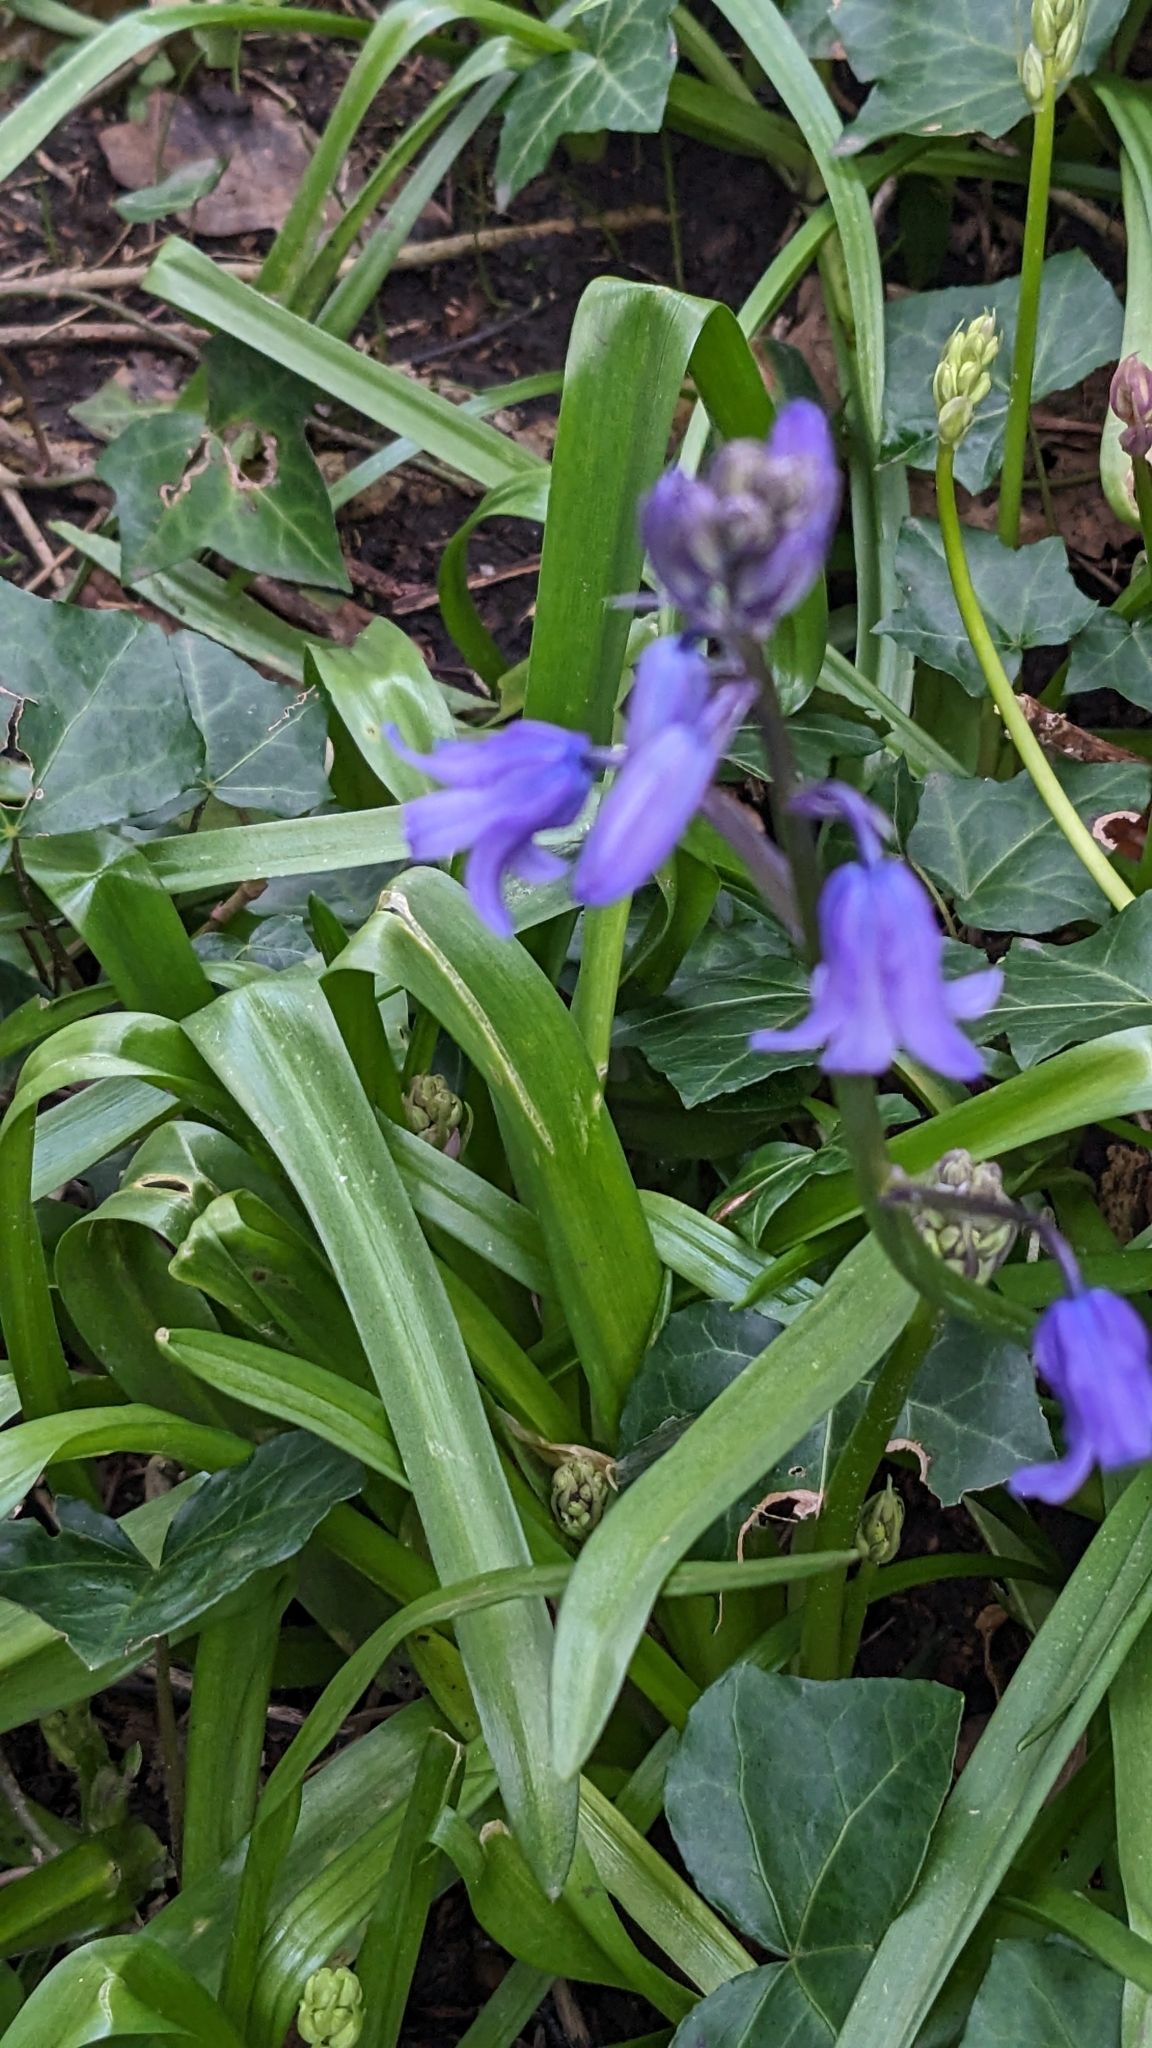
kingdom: Plantae
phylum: Tracheophyta
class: Liliopsida
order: Asparagales
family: Asparagaceae
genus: Hyacinthoides
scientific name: Hyacinthoides massartiana
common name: Hyacinthoides
